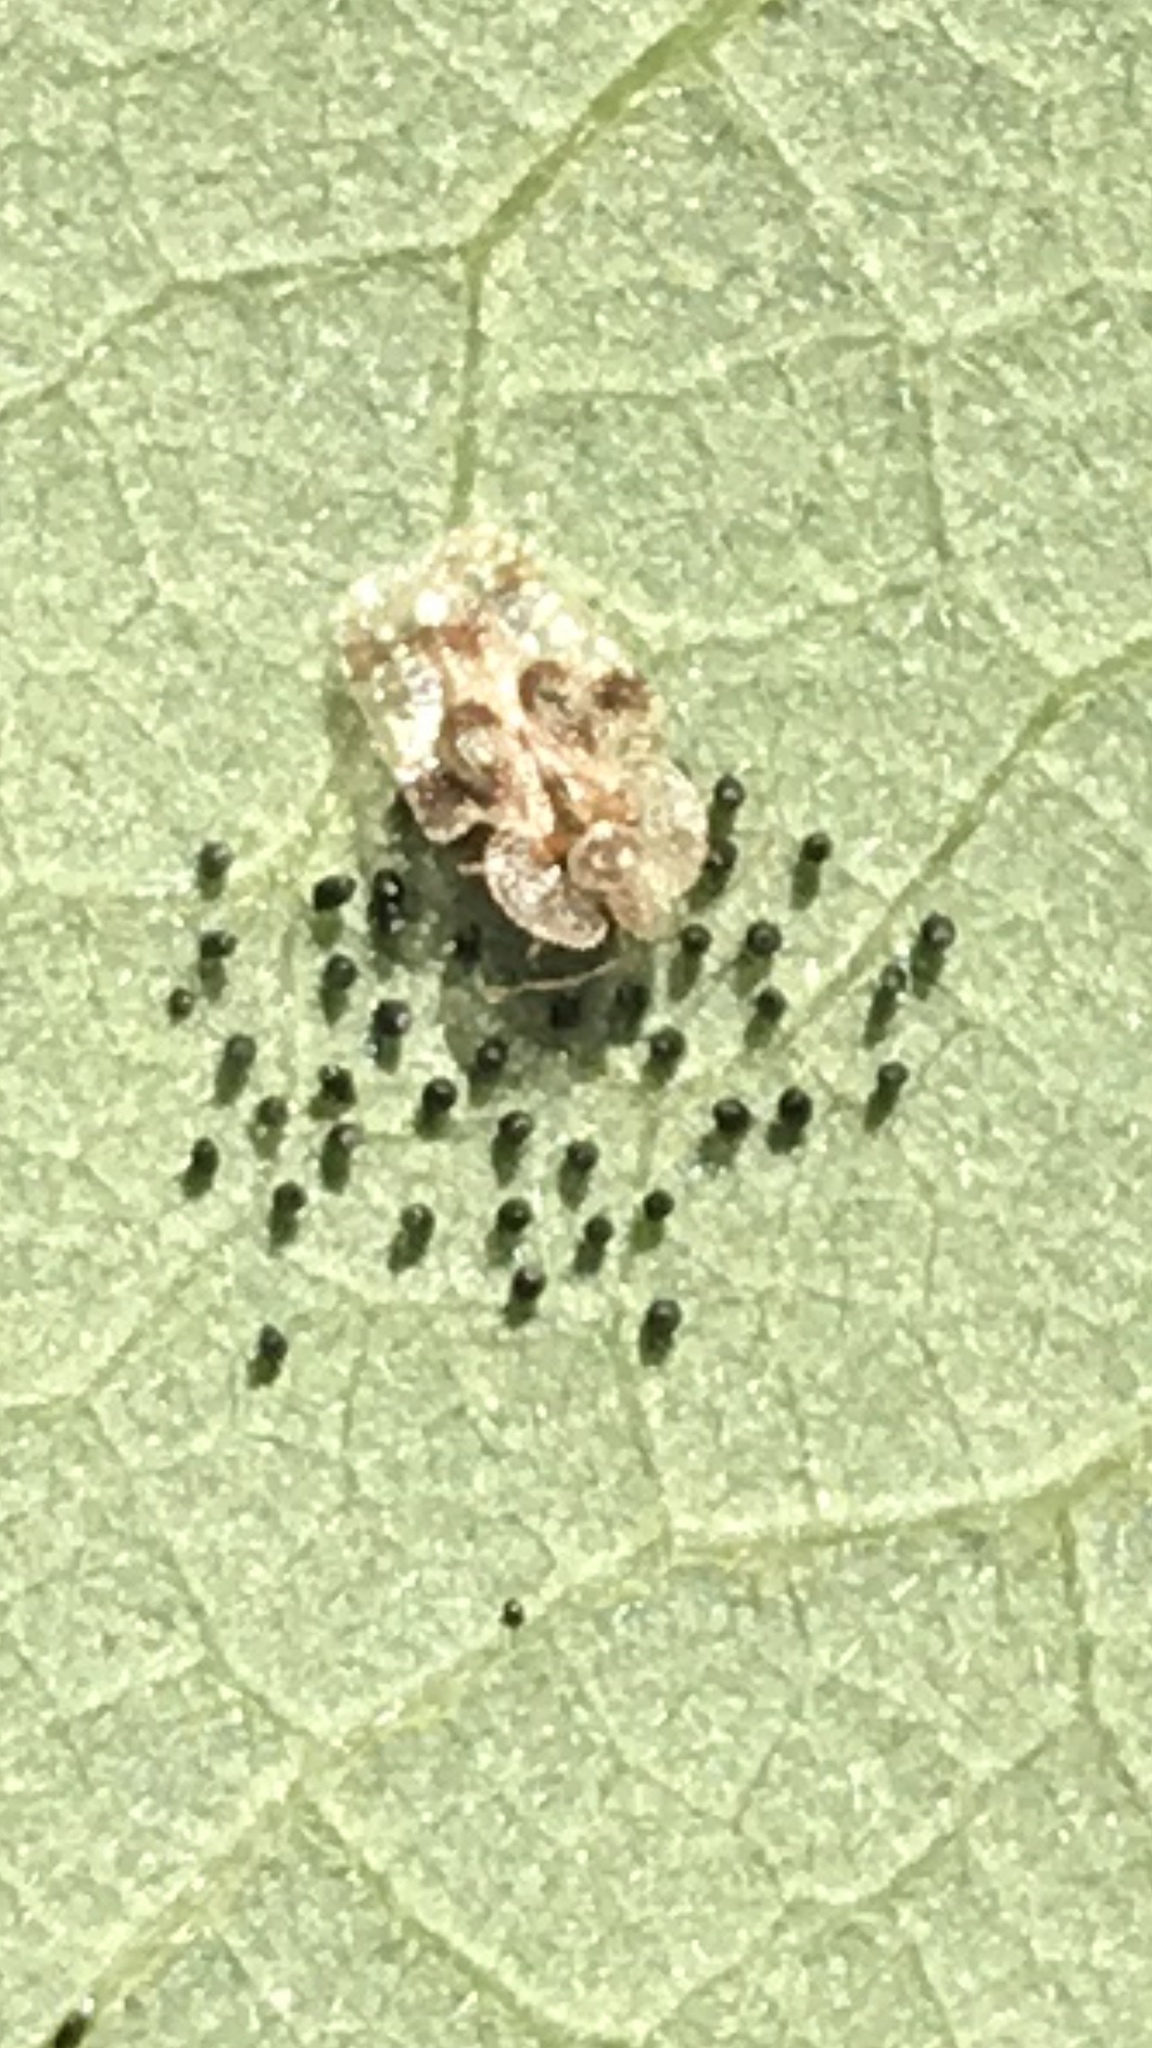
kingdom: Animalia
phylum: Arthropoda
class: Insecta
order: Hemiptera
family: Tingidae
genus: Corythucha
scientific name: Corythucha arcuata
